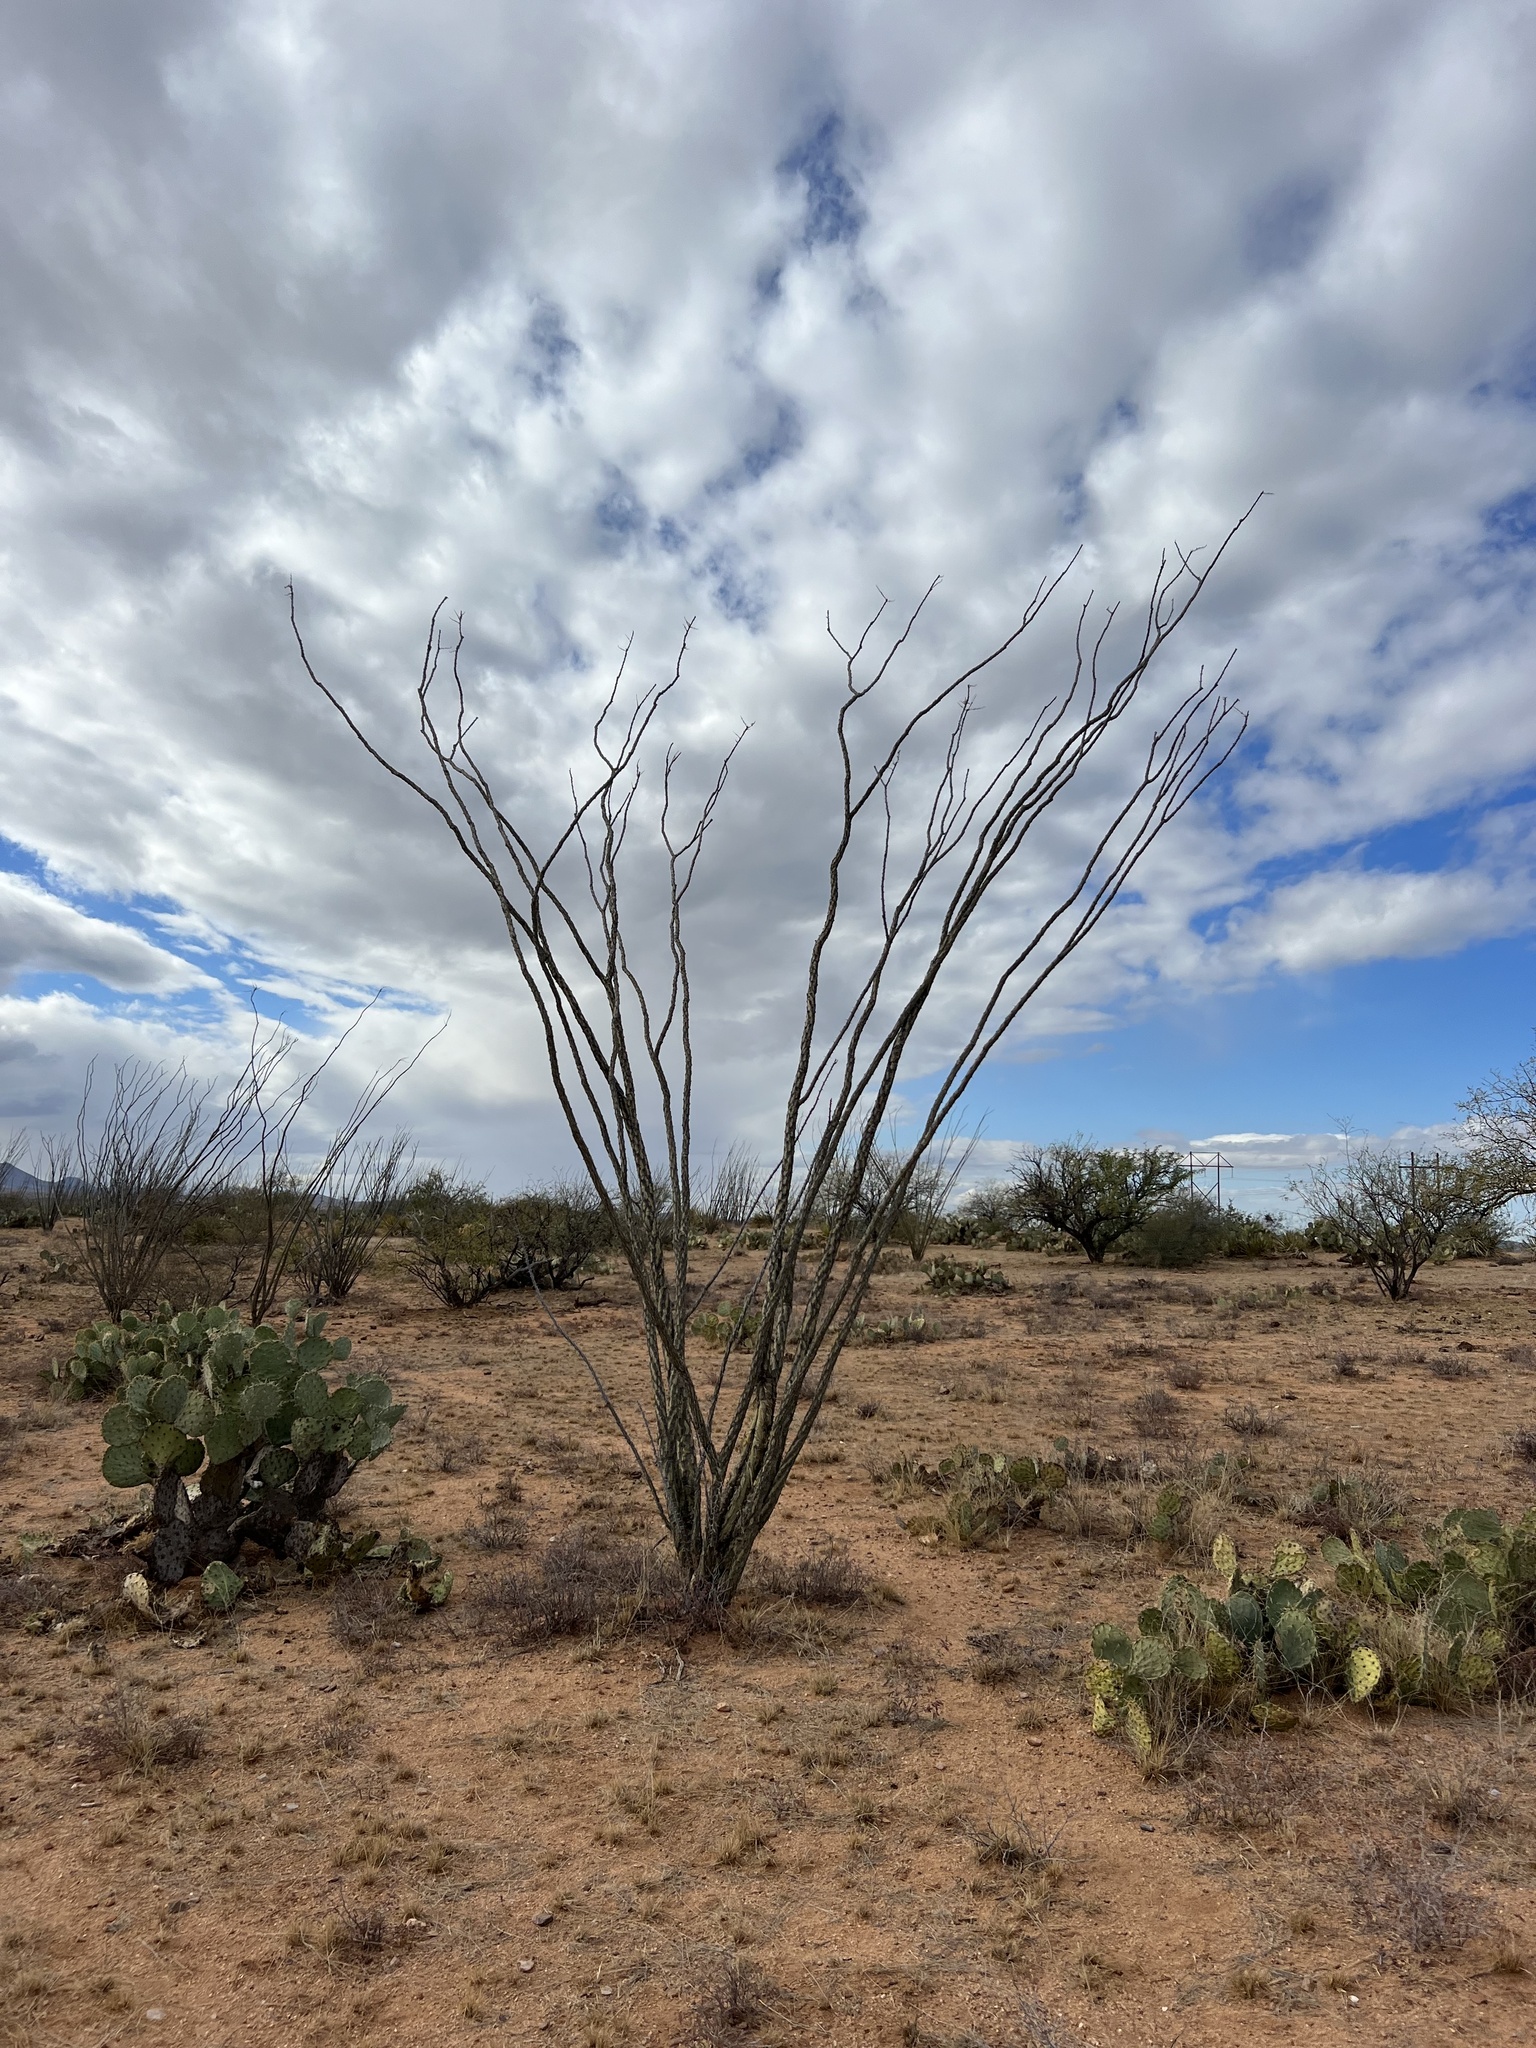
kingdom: Plantae
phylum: Tracheophyta
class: Magnoliopsida
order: Ericales
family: Fouquieriaceae
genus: Fouquieria
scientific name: Fouquieria splendens
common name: Vine-cactus
